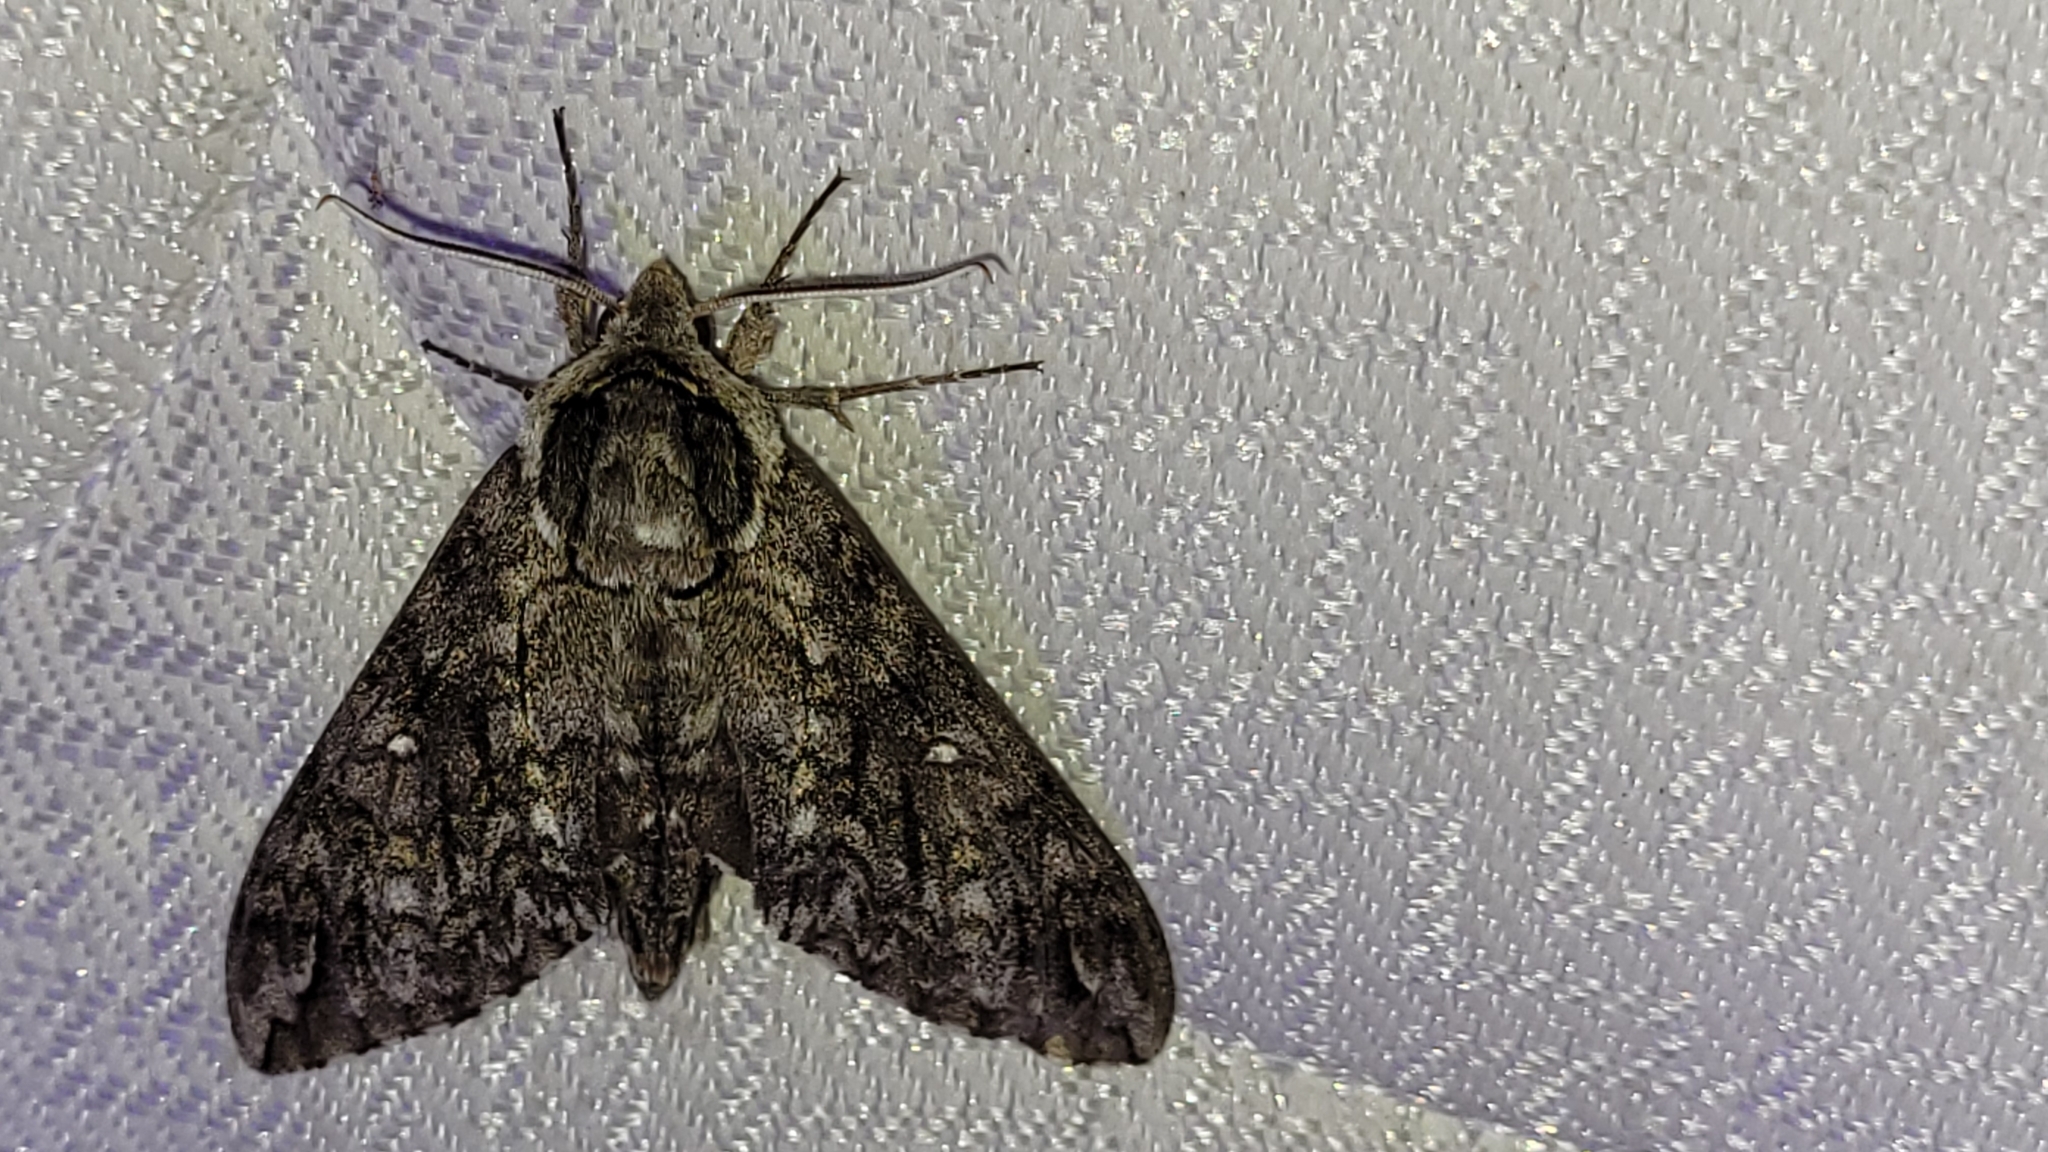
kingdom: Animalia
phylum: Arthropoda
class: Insecta
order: Lepidoptera
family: Sphingidae
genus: Ceratomia
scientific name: Ceratomia undulosa
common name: Waved sphinx
